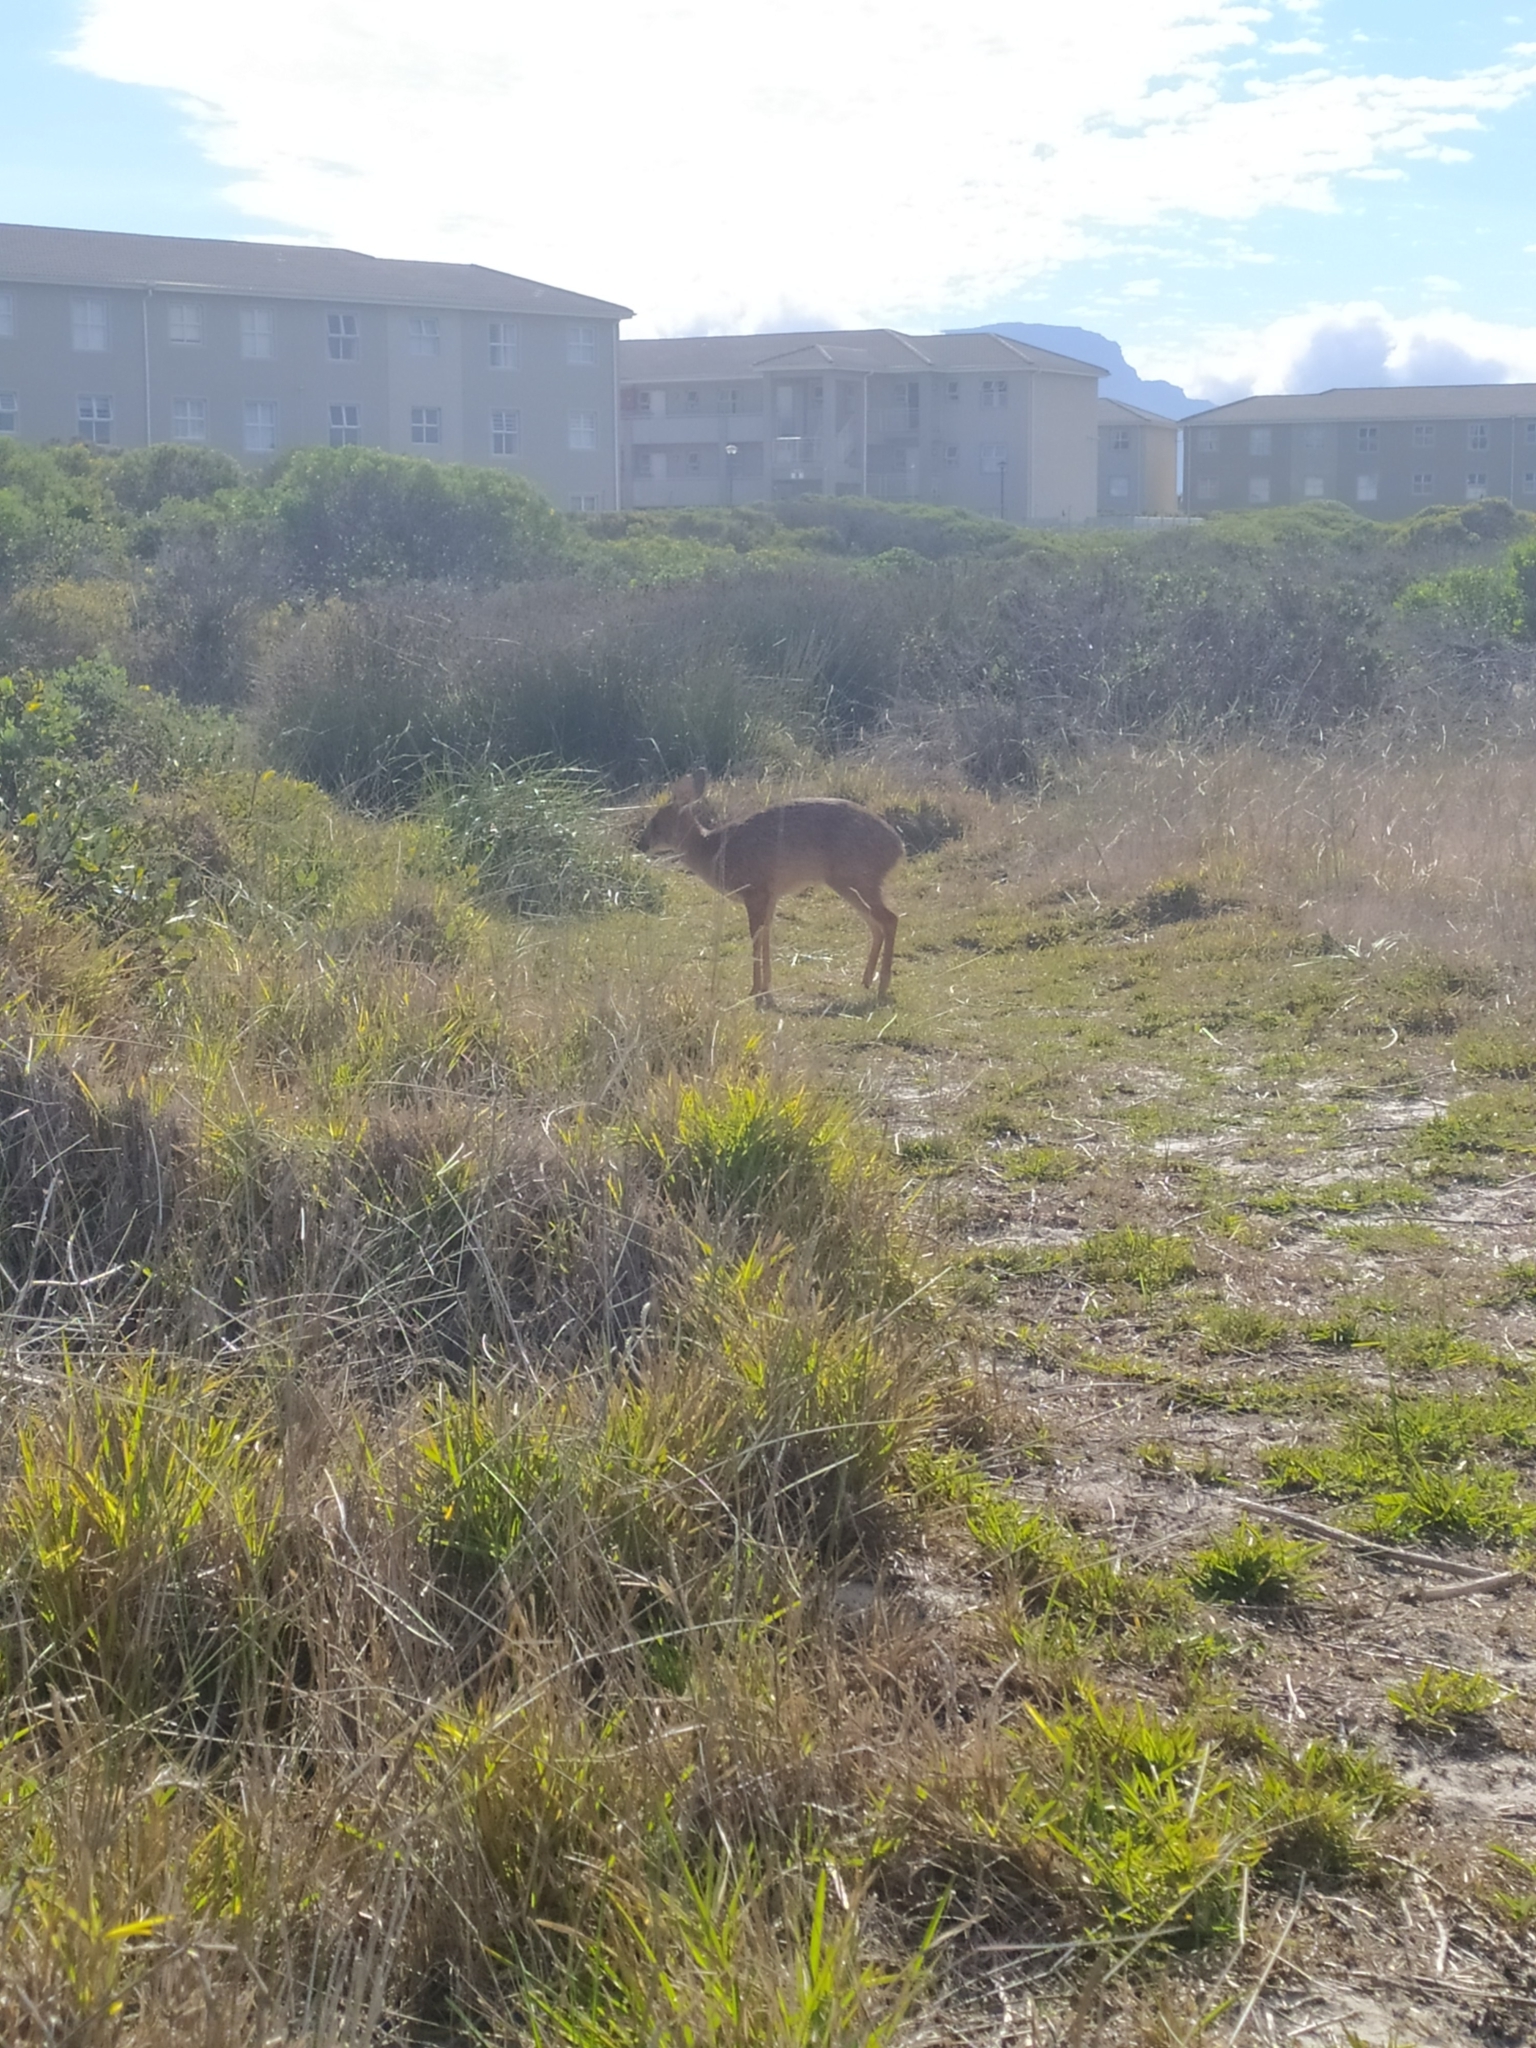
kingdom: Animalia
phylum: Chordata
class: Mammalia
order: Artiodactyla
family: Bovidae
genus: Raphicerus
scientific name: Raphicerus melanotis
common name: Cape grysbok
